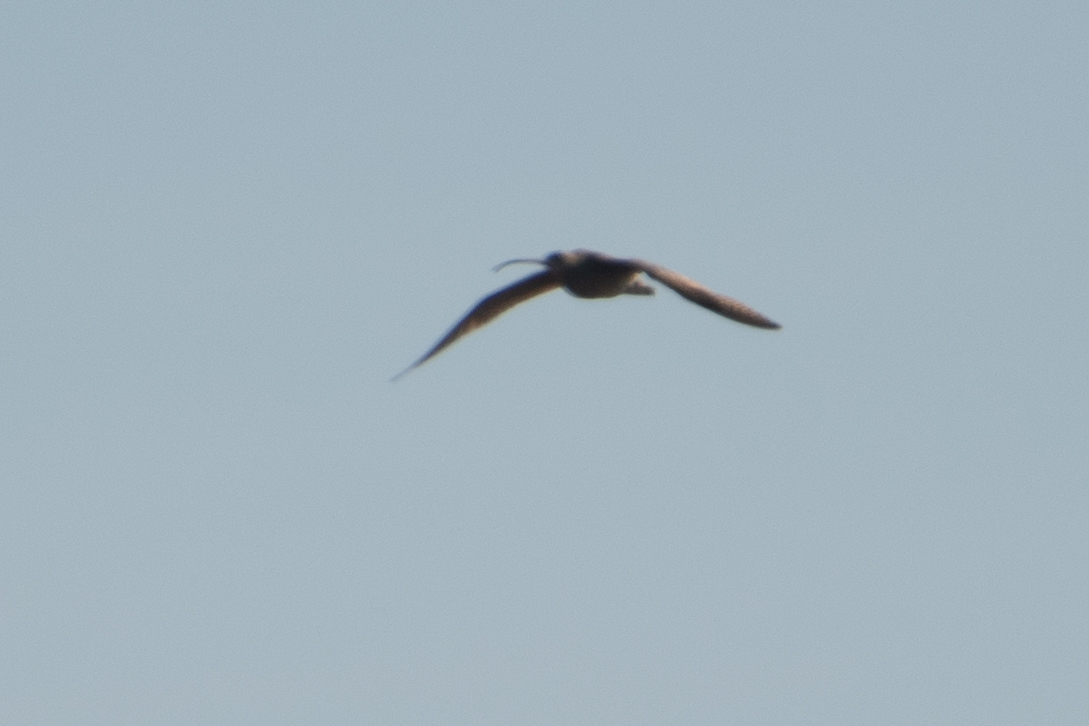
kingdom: Animalia
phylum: Chordata
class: Aves
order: Charadriiformes
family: Scolopacidae
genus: Numenius
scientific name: Numenius americanus
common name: Long-billed curlew
